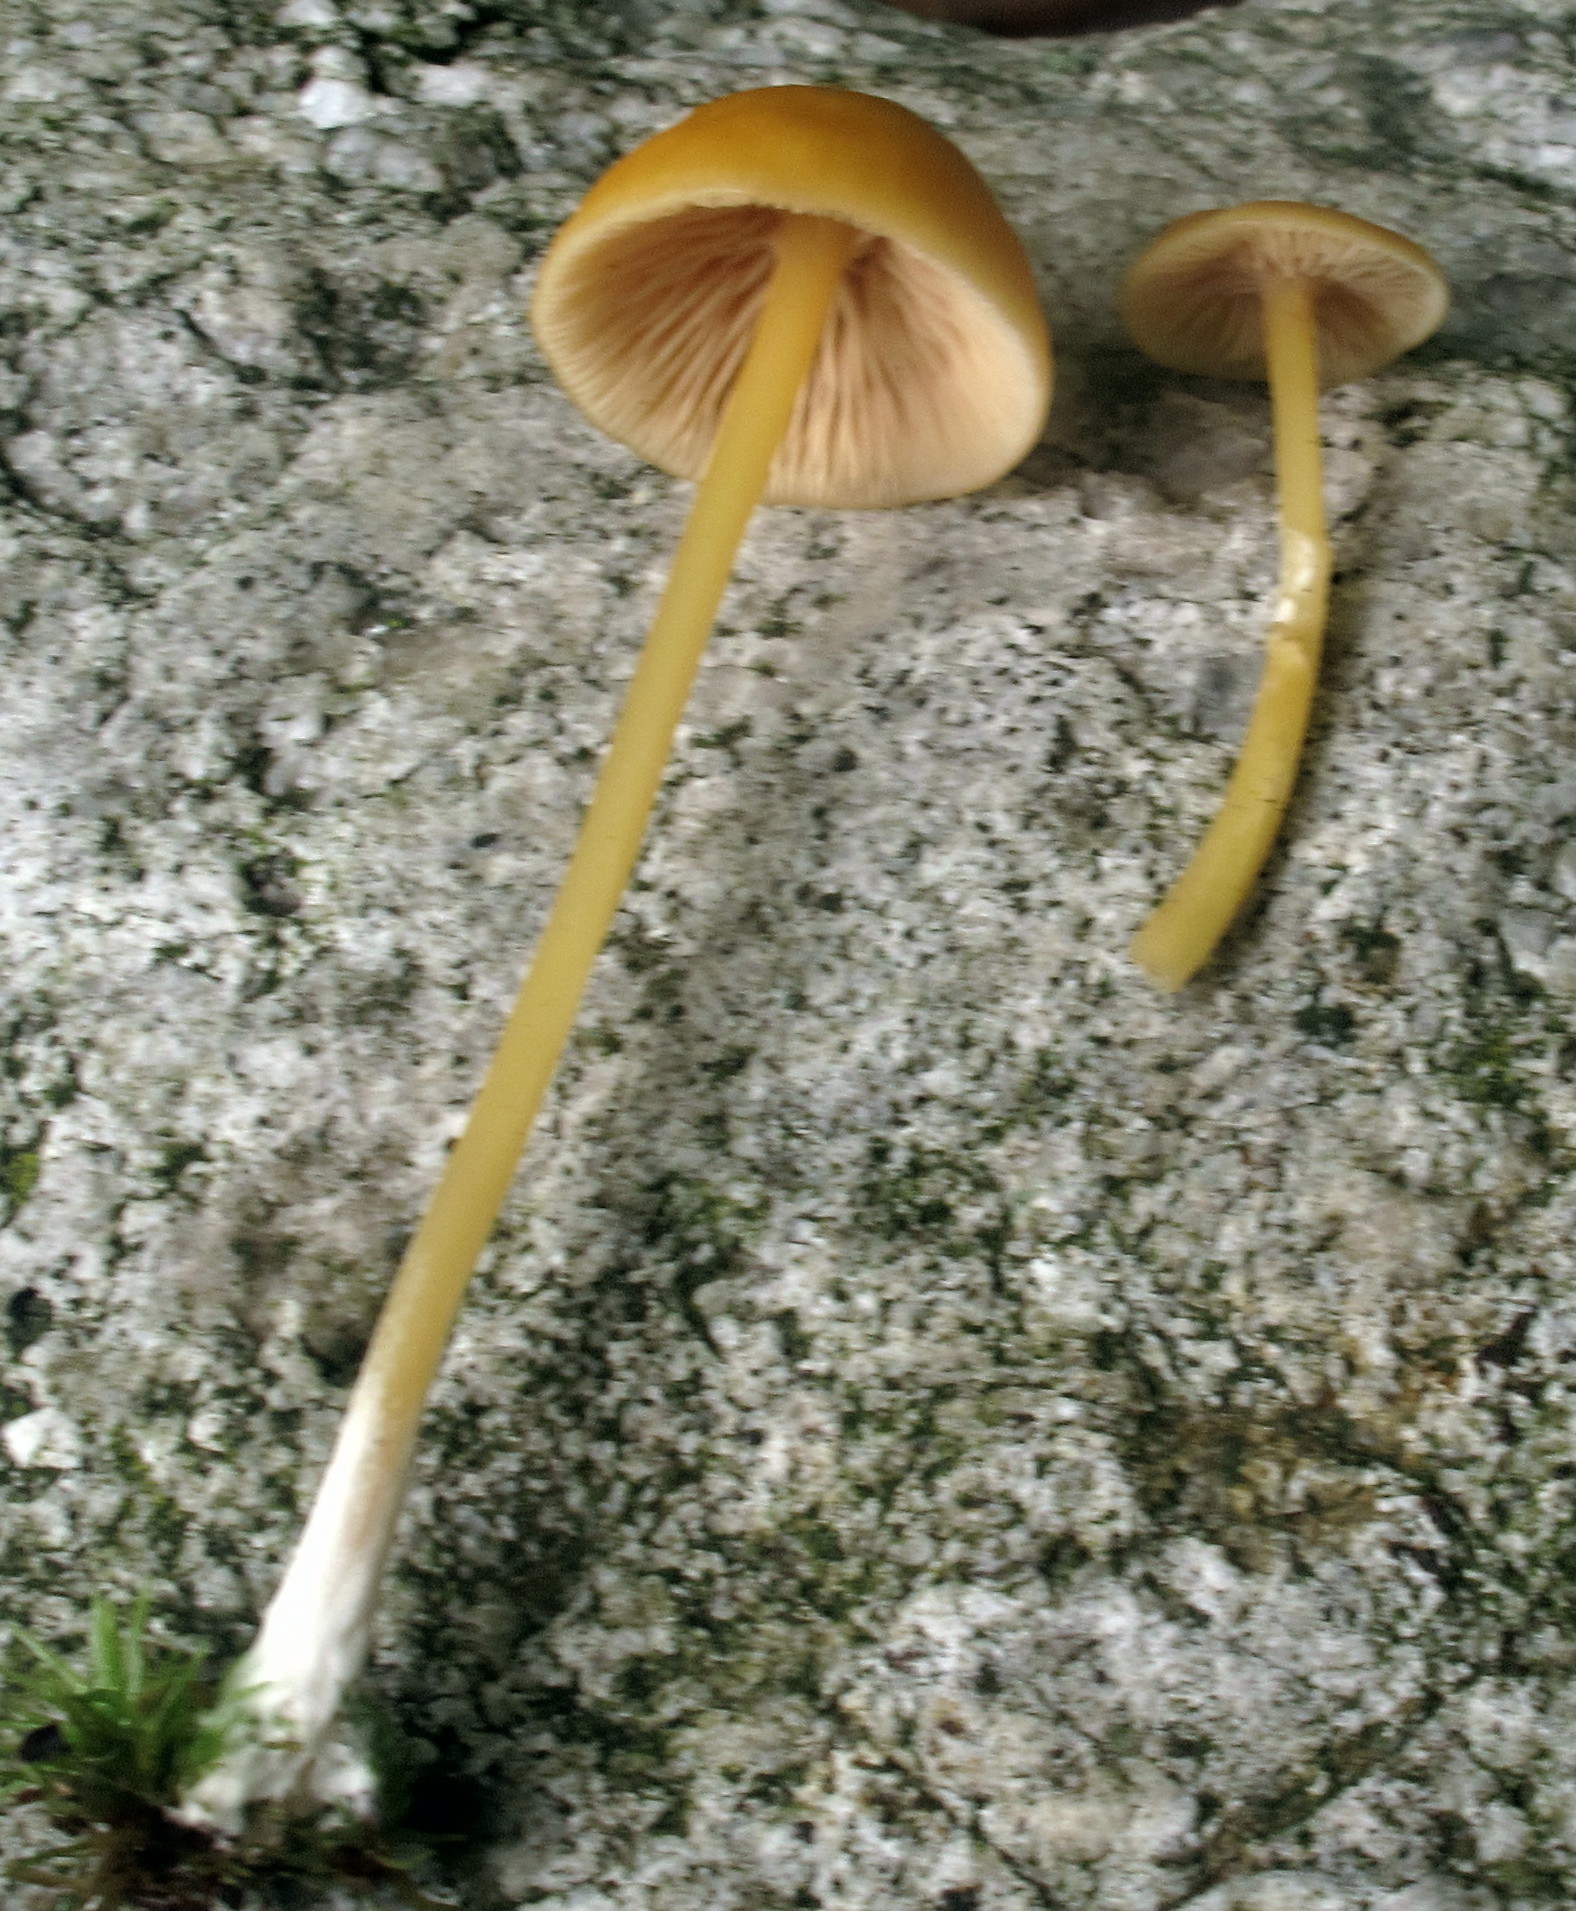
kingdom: Fungi
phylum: Basidiomycota
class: Agaricomycetes
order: Agaricales
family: Entolomataceae
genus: Entoloma
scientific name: Entoloma unicolor
